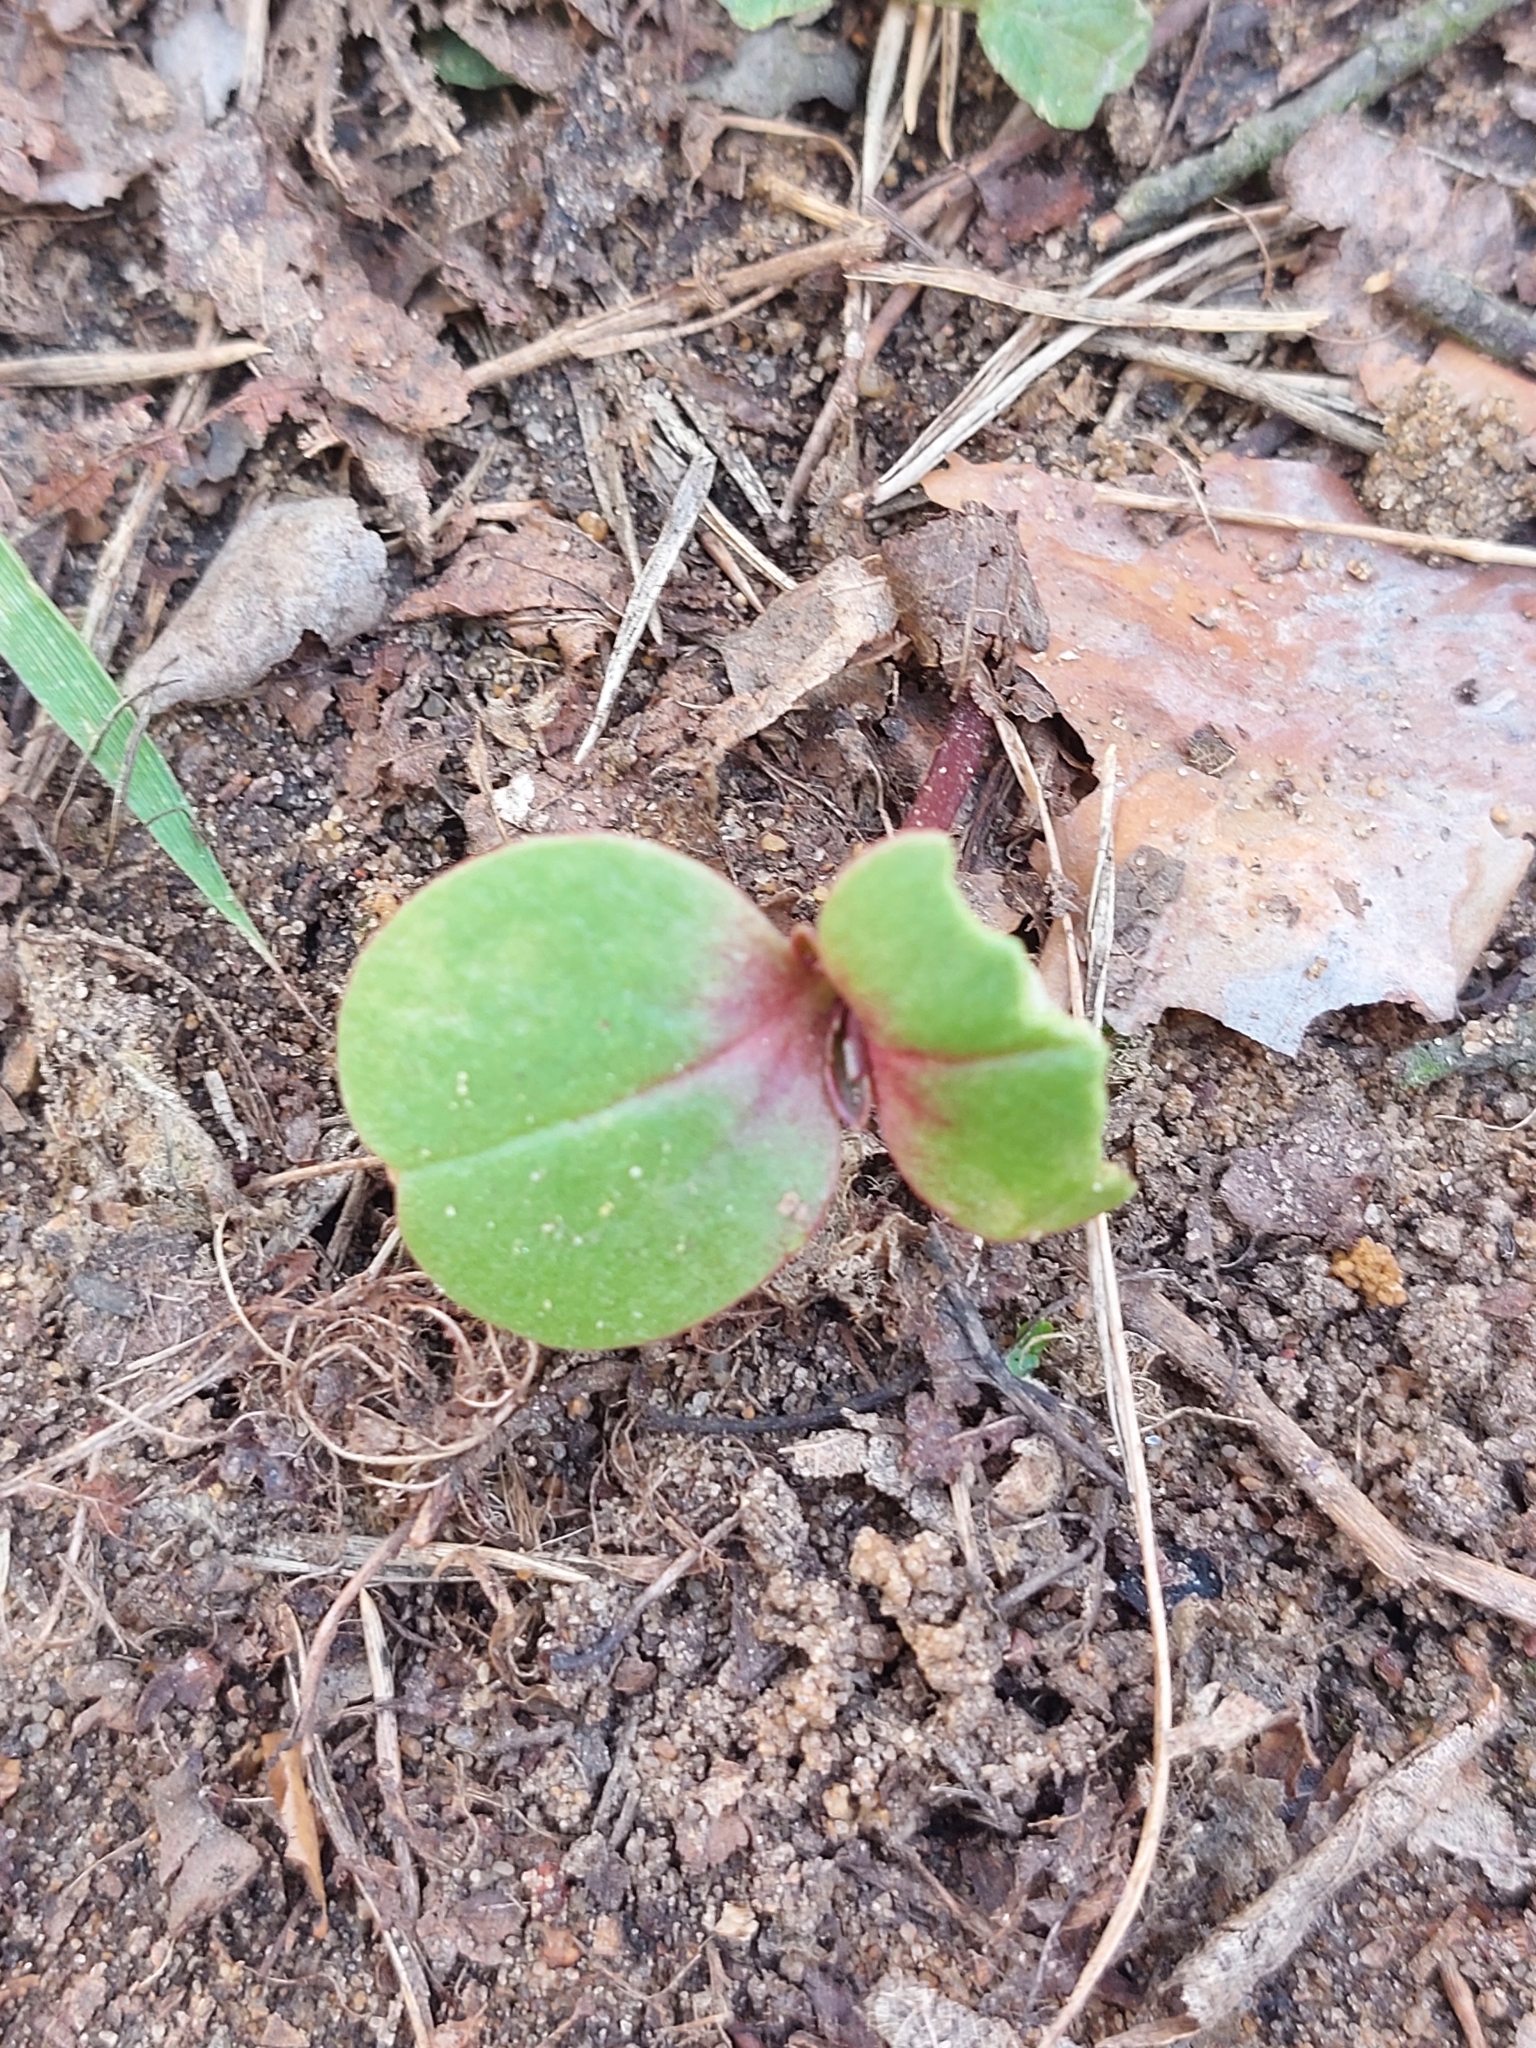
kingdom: Plantae
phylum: Tracheophyta
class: Magnoliopsida
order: Ericales
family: Balsaminaceae
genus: Impatiens
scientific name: Impatiens glandulifera
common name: Himalayan balsam
